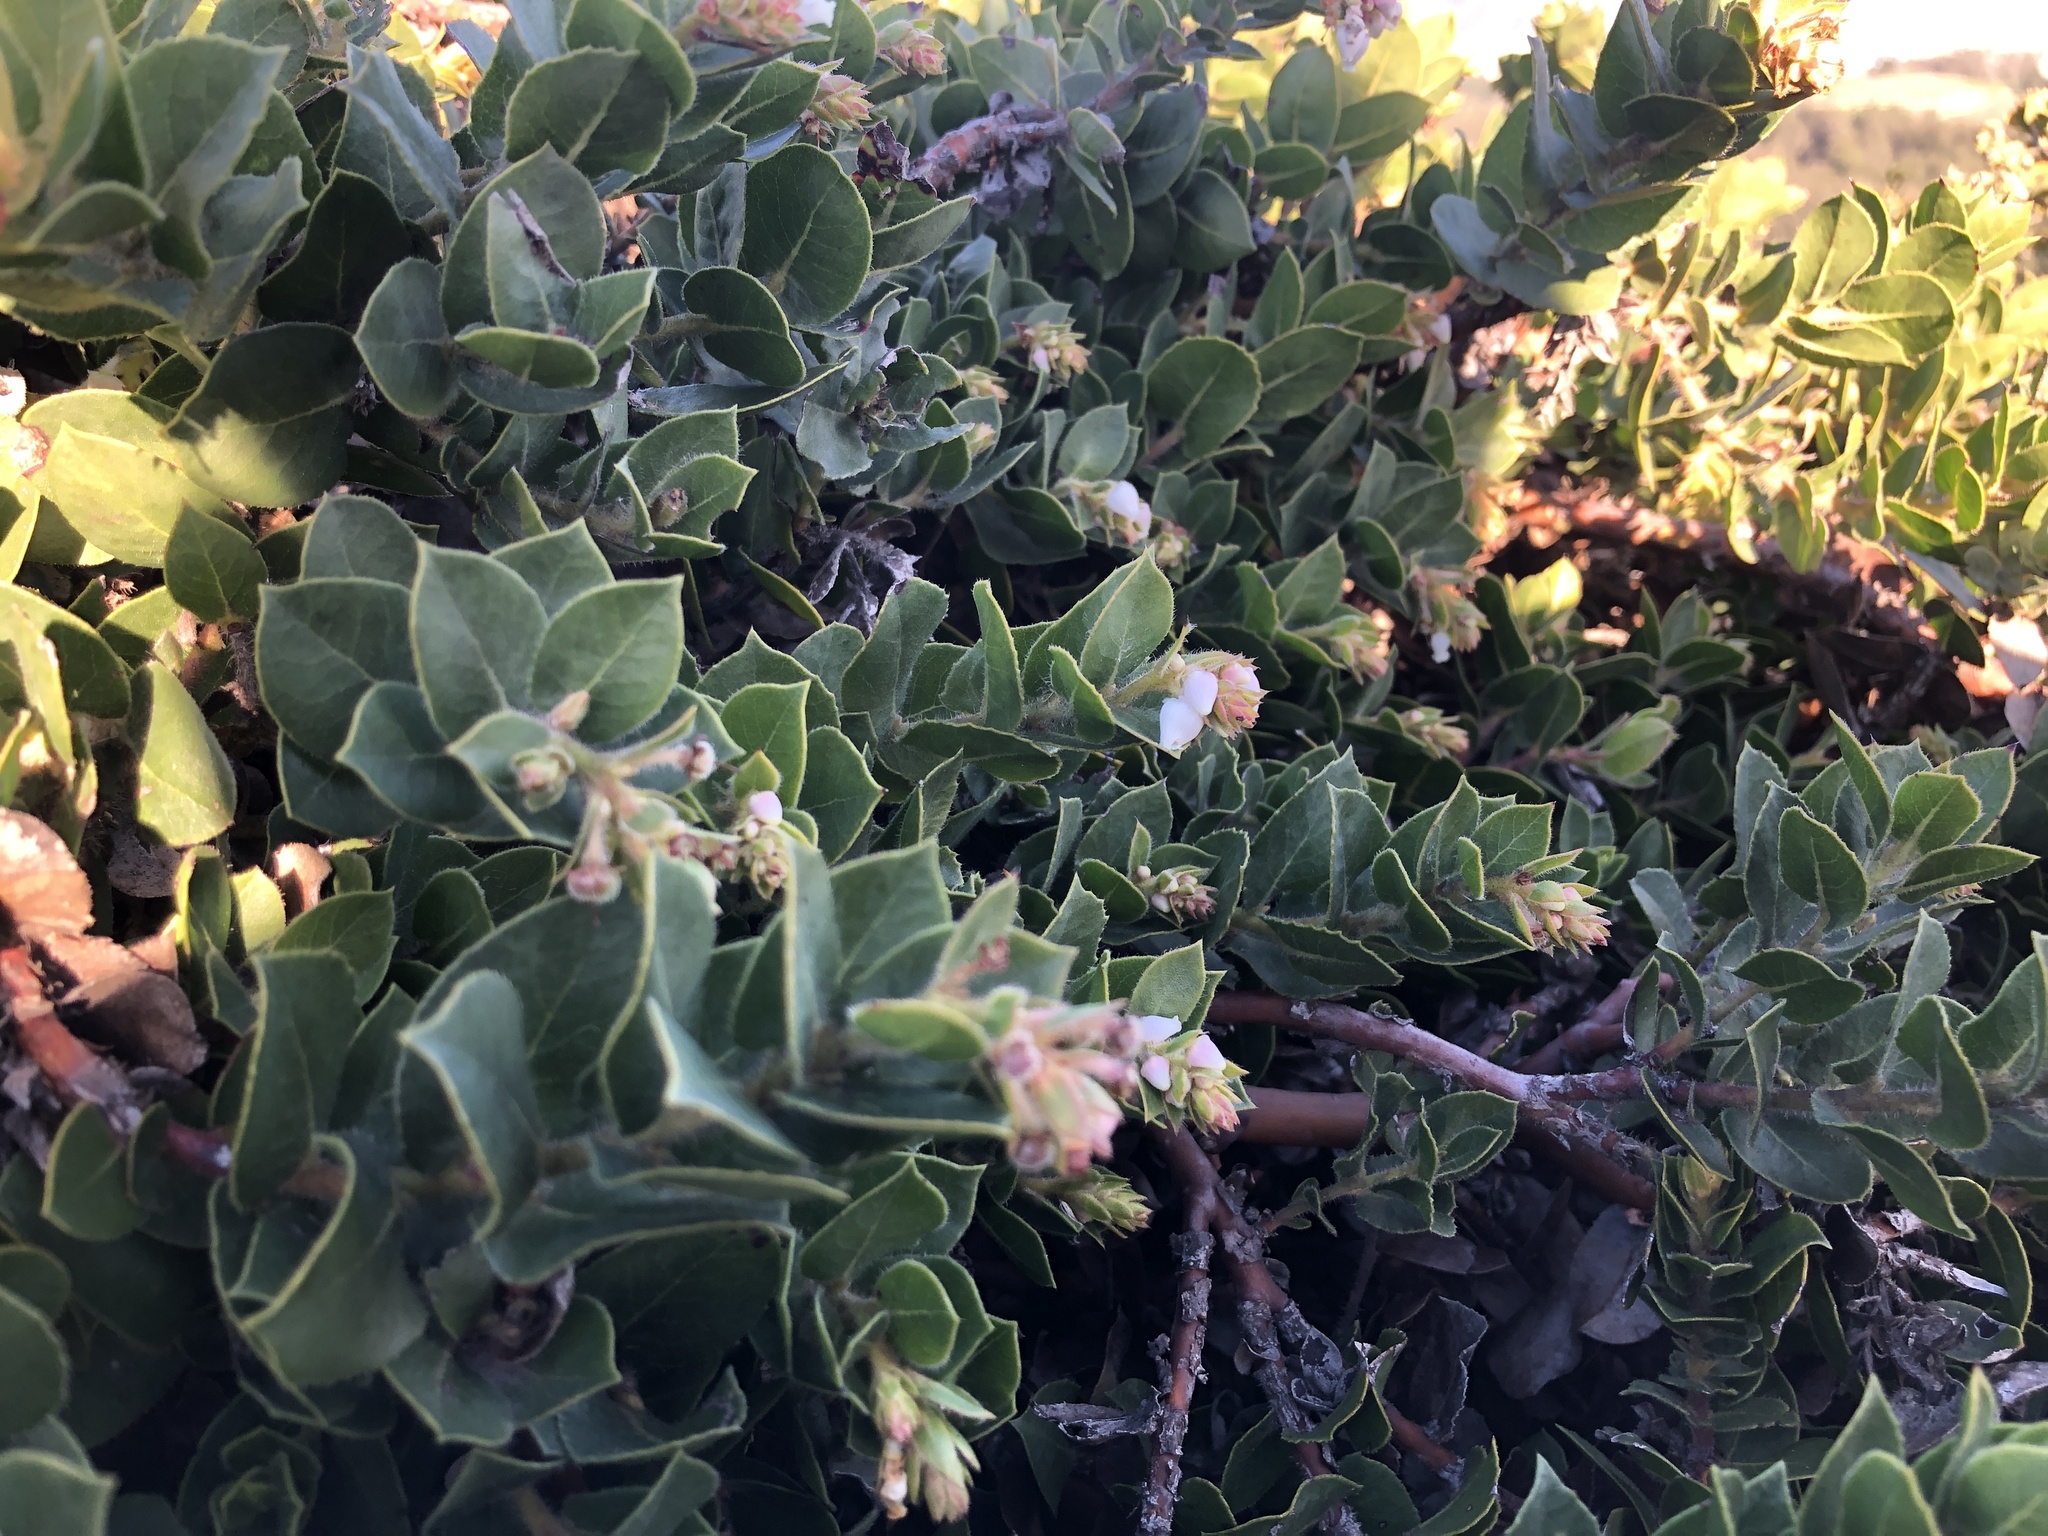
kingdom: Plantae
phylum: Tracheophyta
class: Magnoliopsida
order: Ericales
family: Ericaceae
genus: Arctostaphylos
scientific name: Arctostaphylos imbricata
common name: San bruno mountain manzanita
